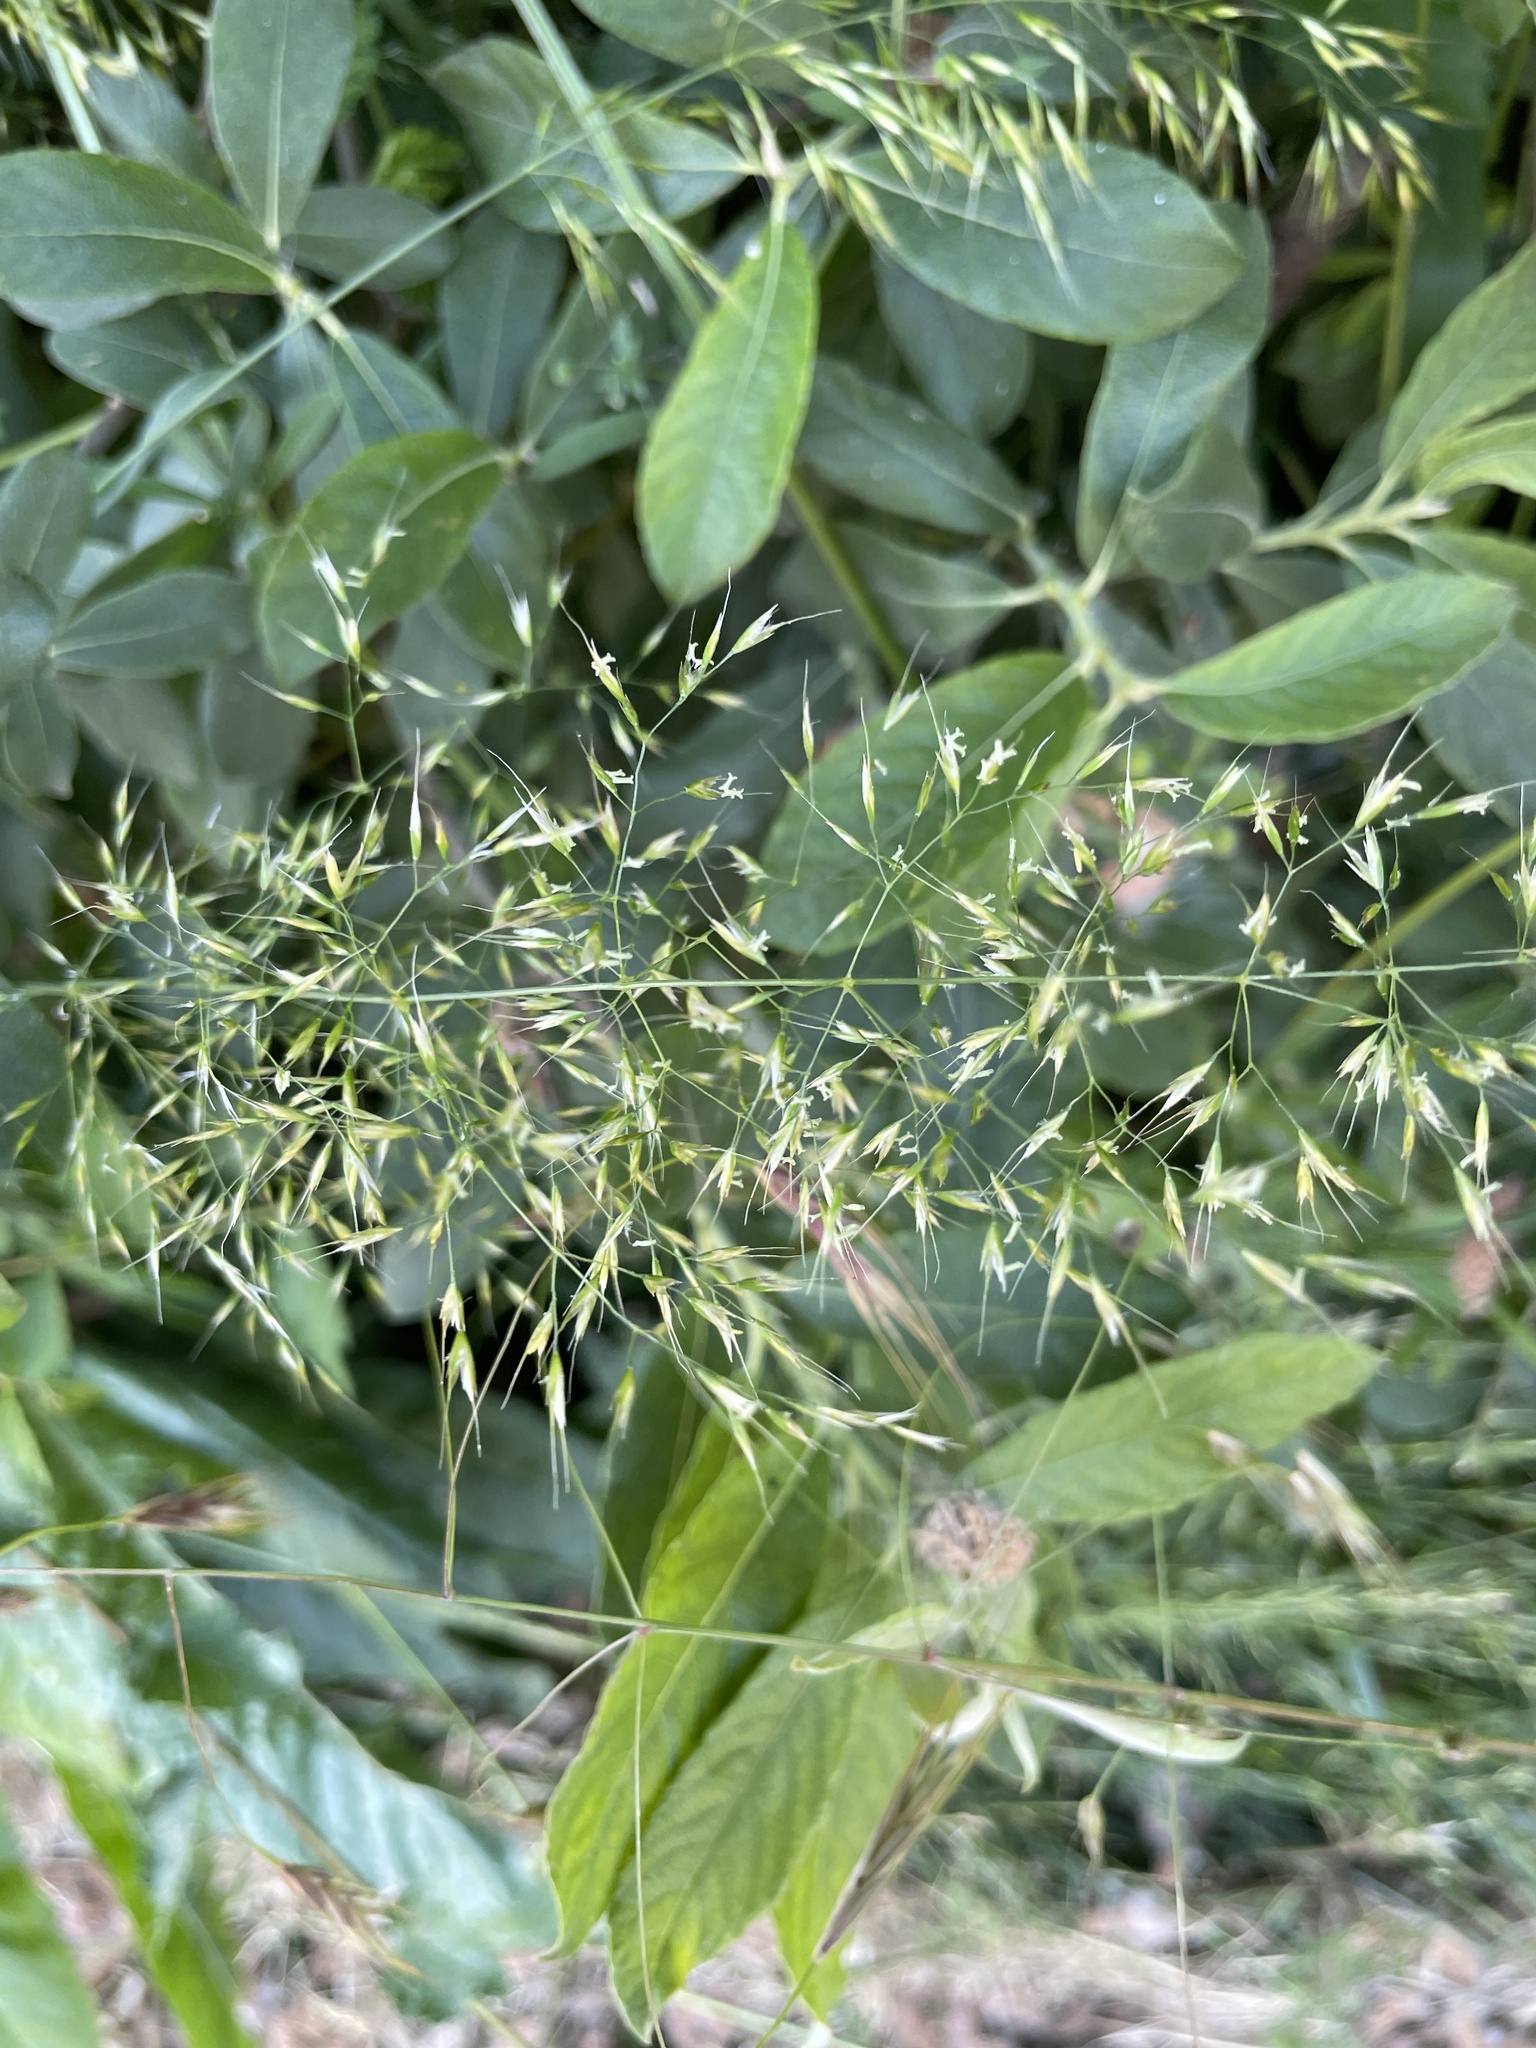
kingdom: Plantae
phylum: Tracheophyta
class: Liliopsida
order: Poales
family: Poaceae
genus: Trisetum
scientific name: Trisetum flavescens
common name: Yellow oat-grass
